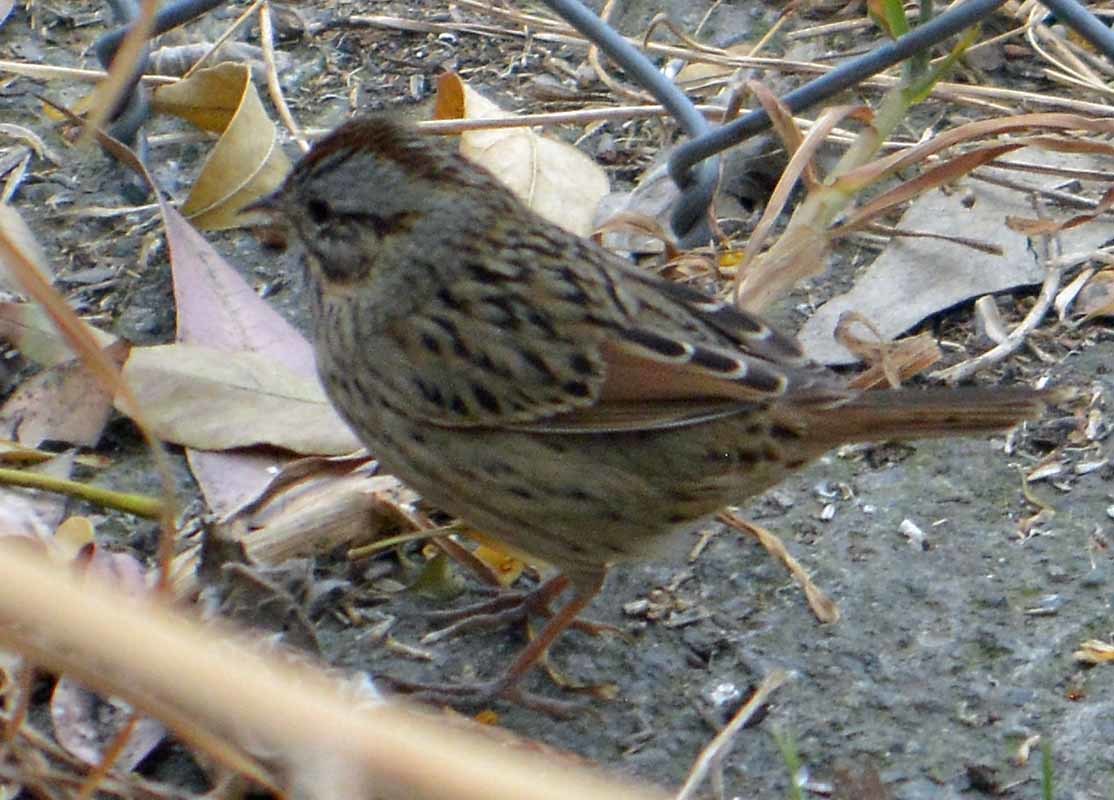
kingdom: Animalia
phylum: Chordata
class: Aves
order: Passeriformes
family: Passerellidae
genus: Melospiza
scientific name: Melospiza lincolnii
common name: Lincoln's sparrow
